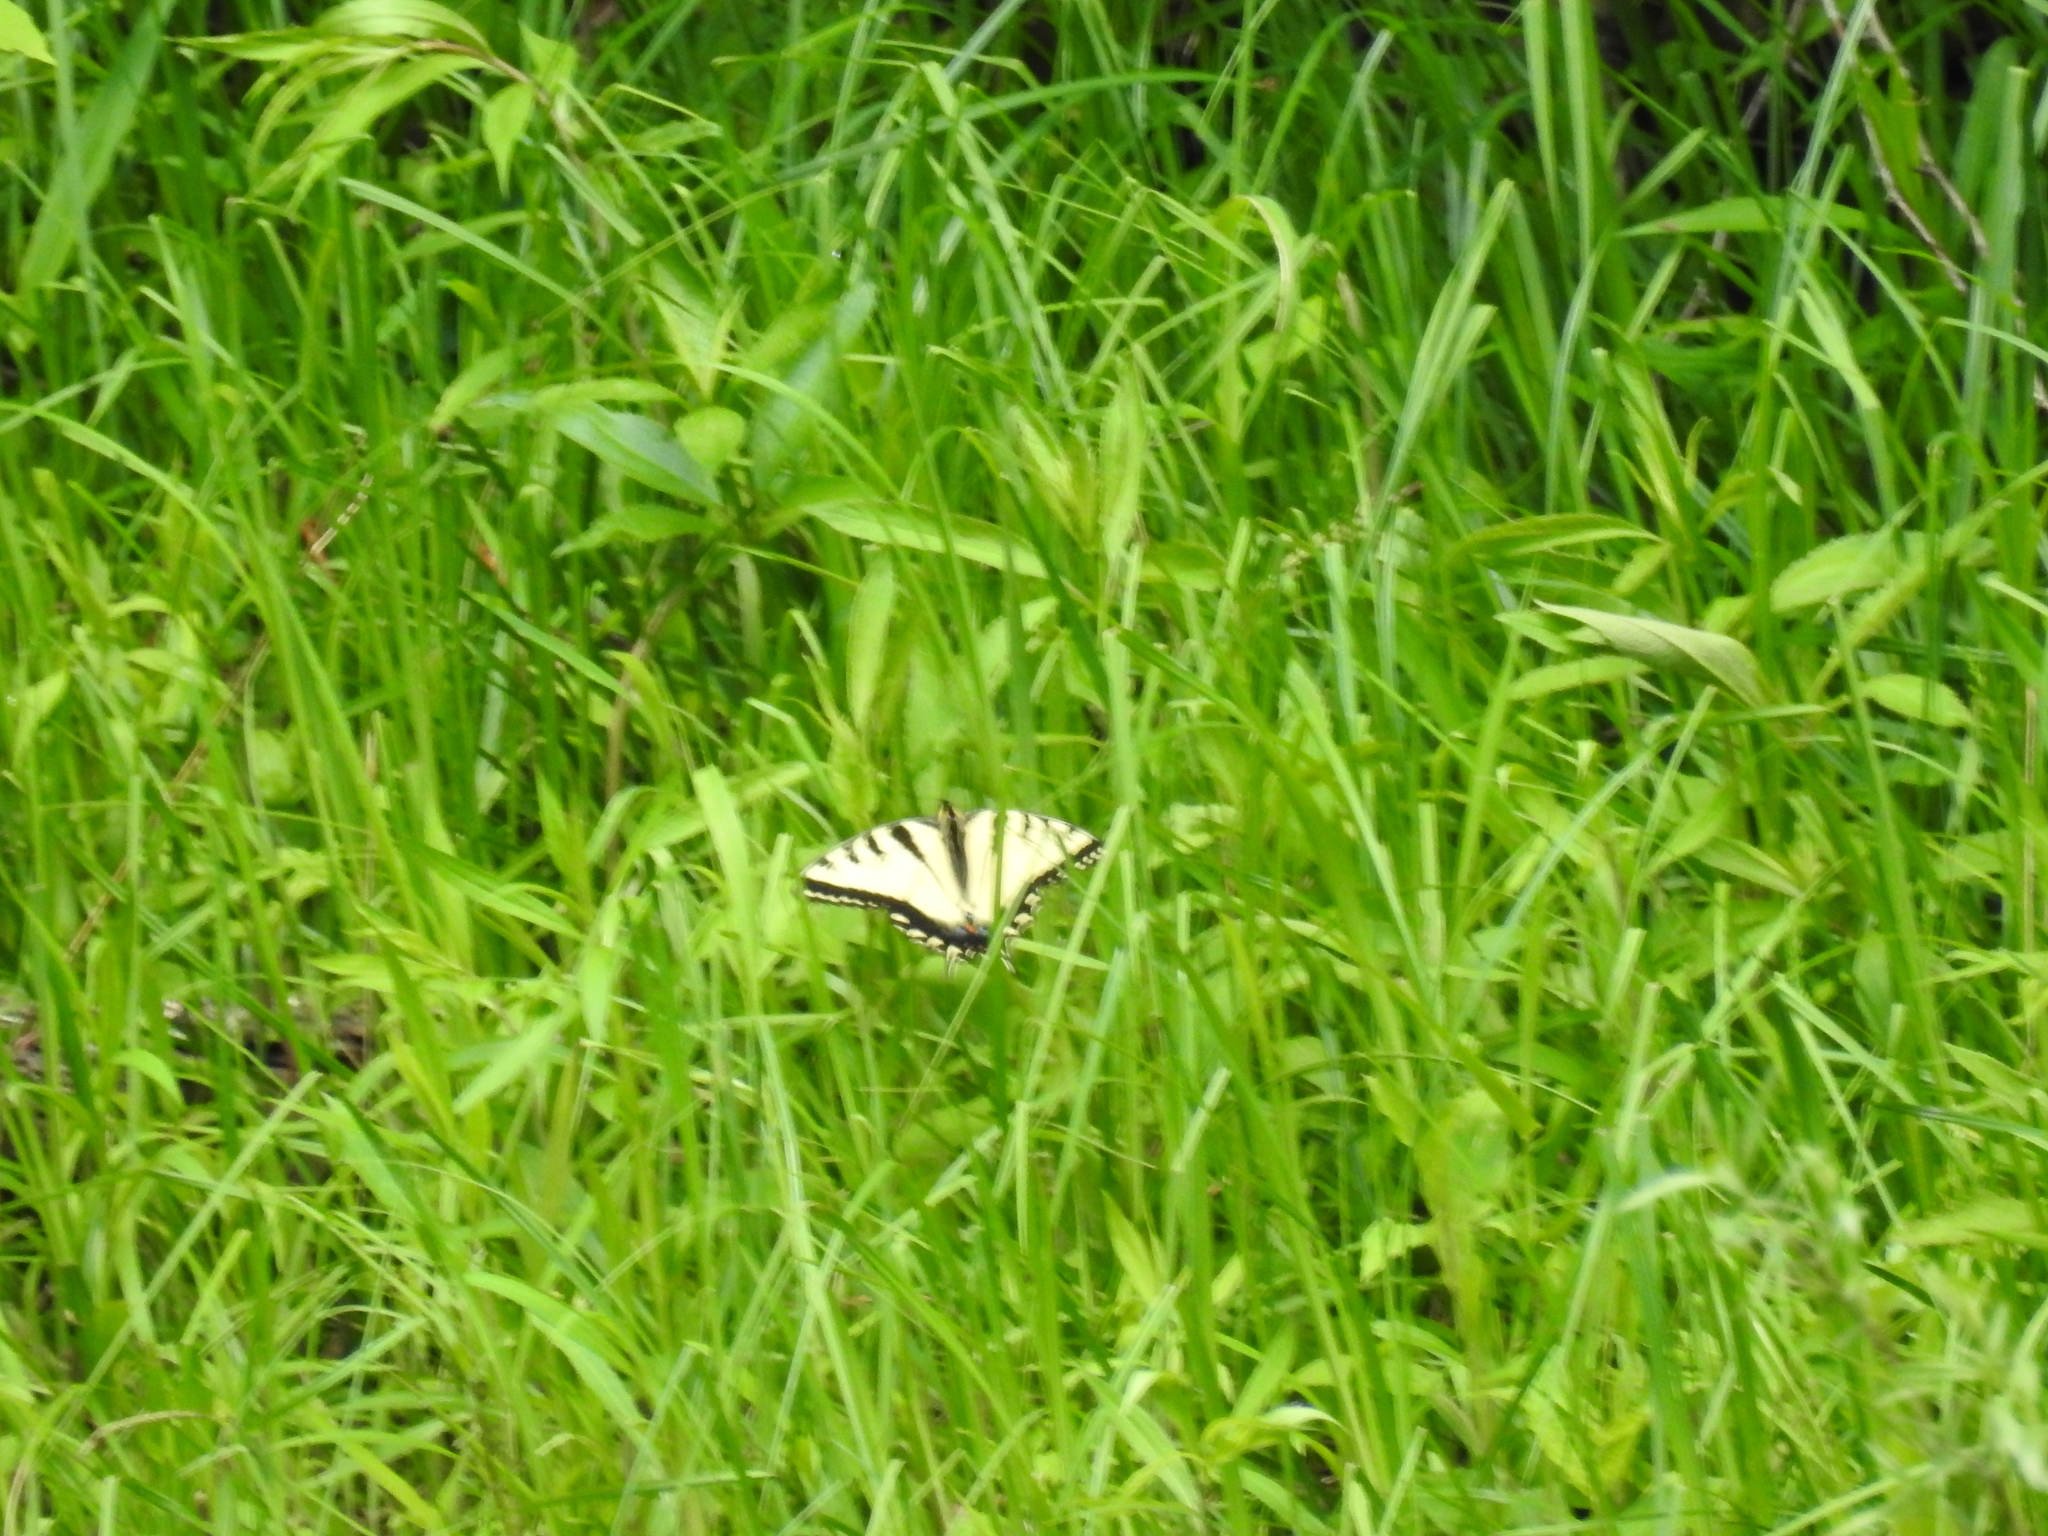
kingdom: Animalia
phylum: Arthropoda
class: Insecta
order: Lepidoptera
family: Papilionidae
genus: Papilio
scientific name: Papilio glaucus
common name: Tiger swallowtail
